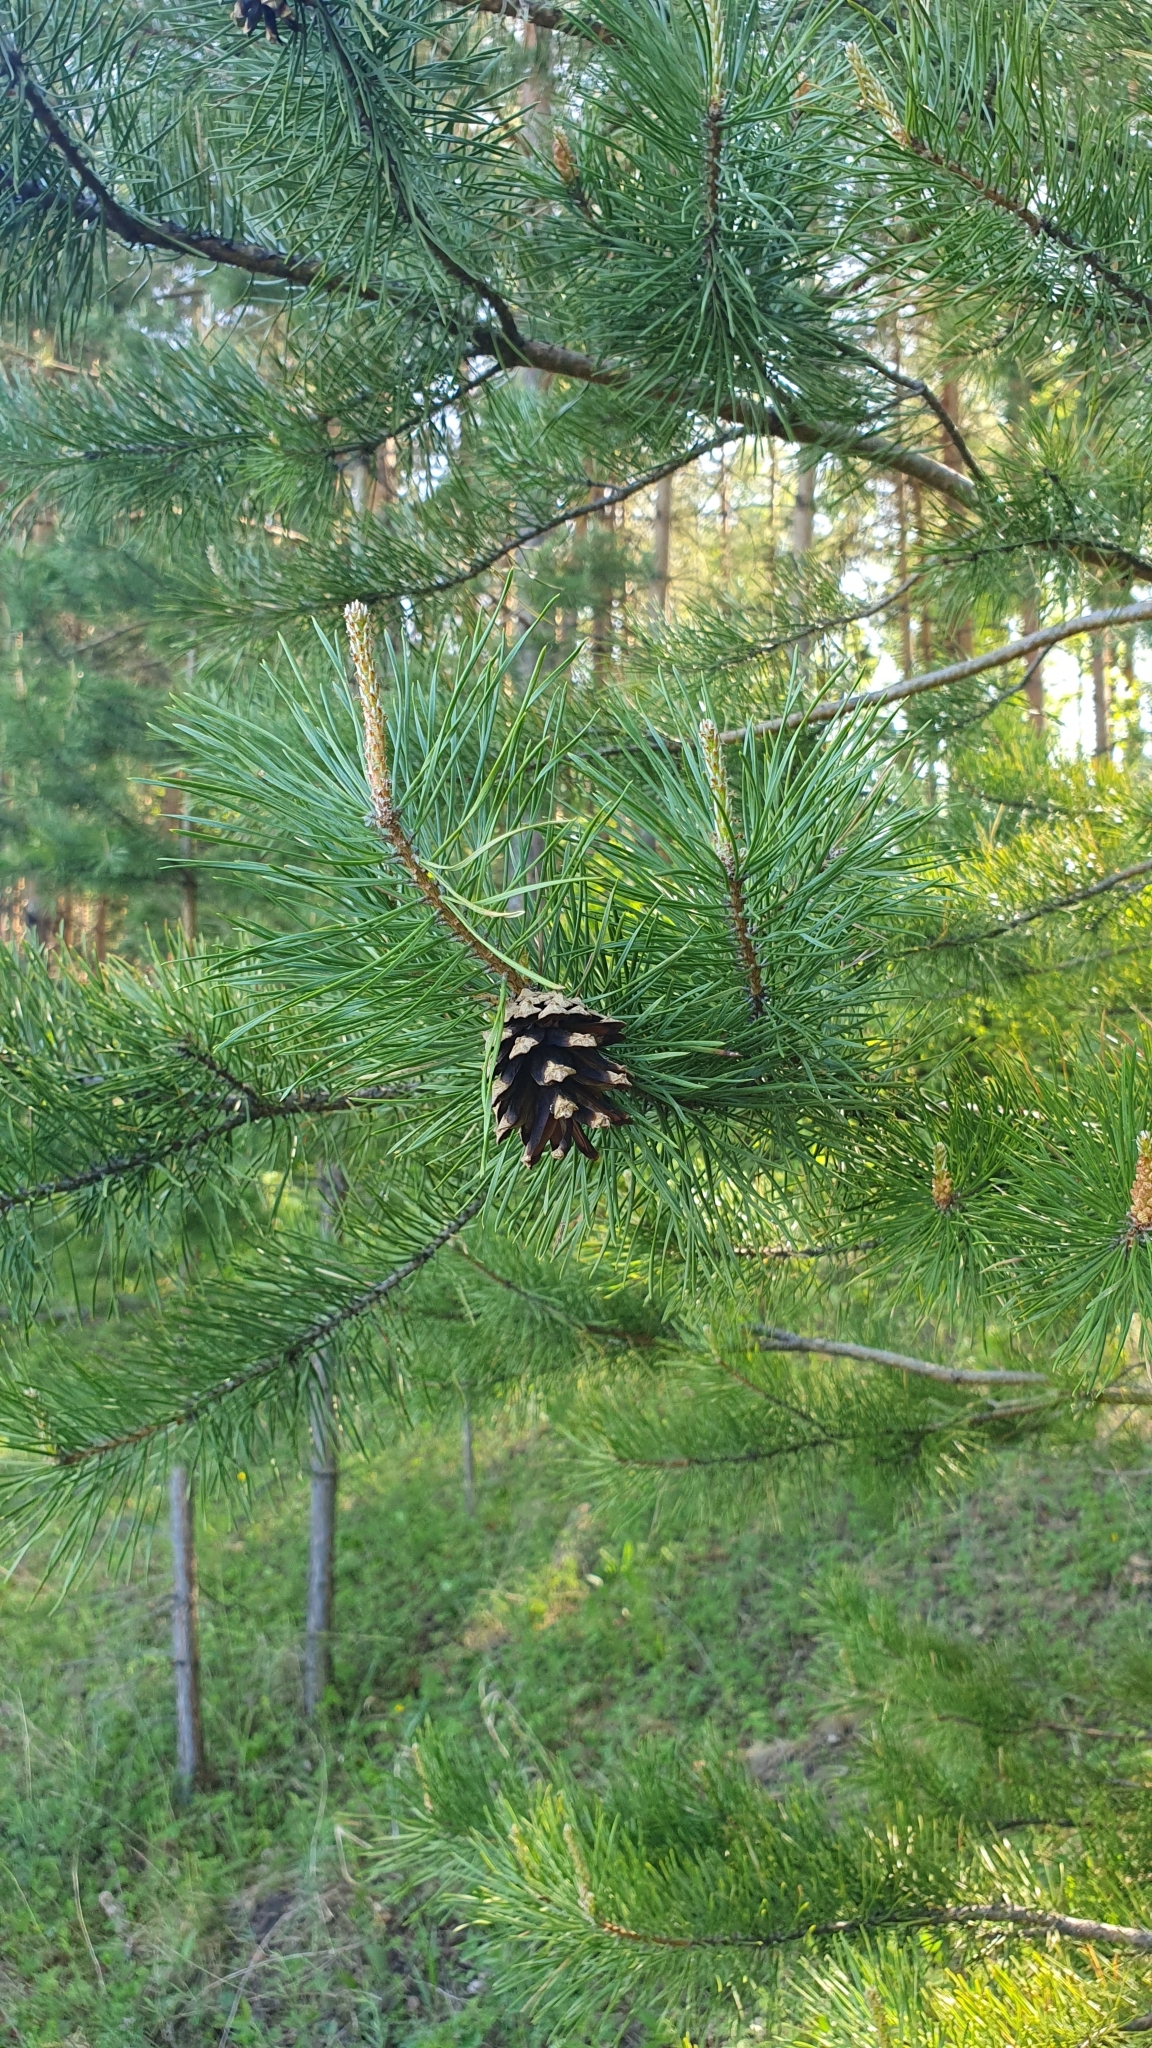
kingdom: Plantae
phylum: Tracheophyta
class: Pinopsida
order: Pinales
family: Pinaceae
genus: Pinus
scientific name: Pinus sylvestris
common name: Scots pine
